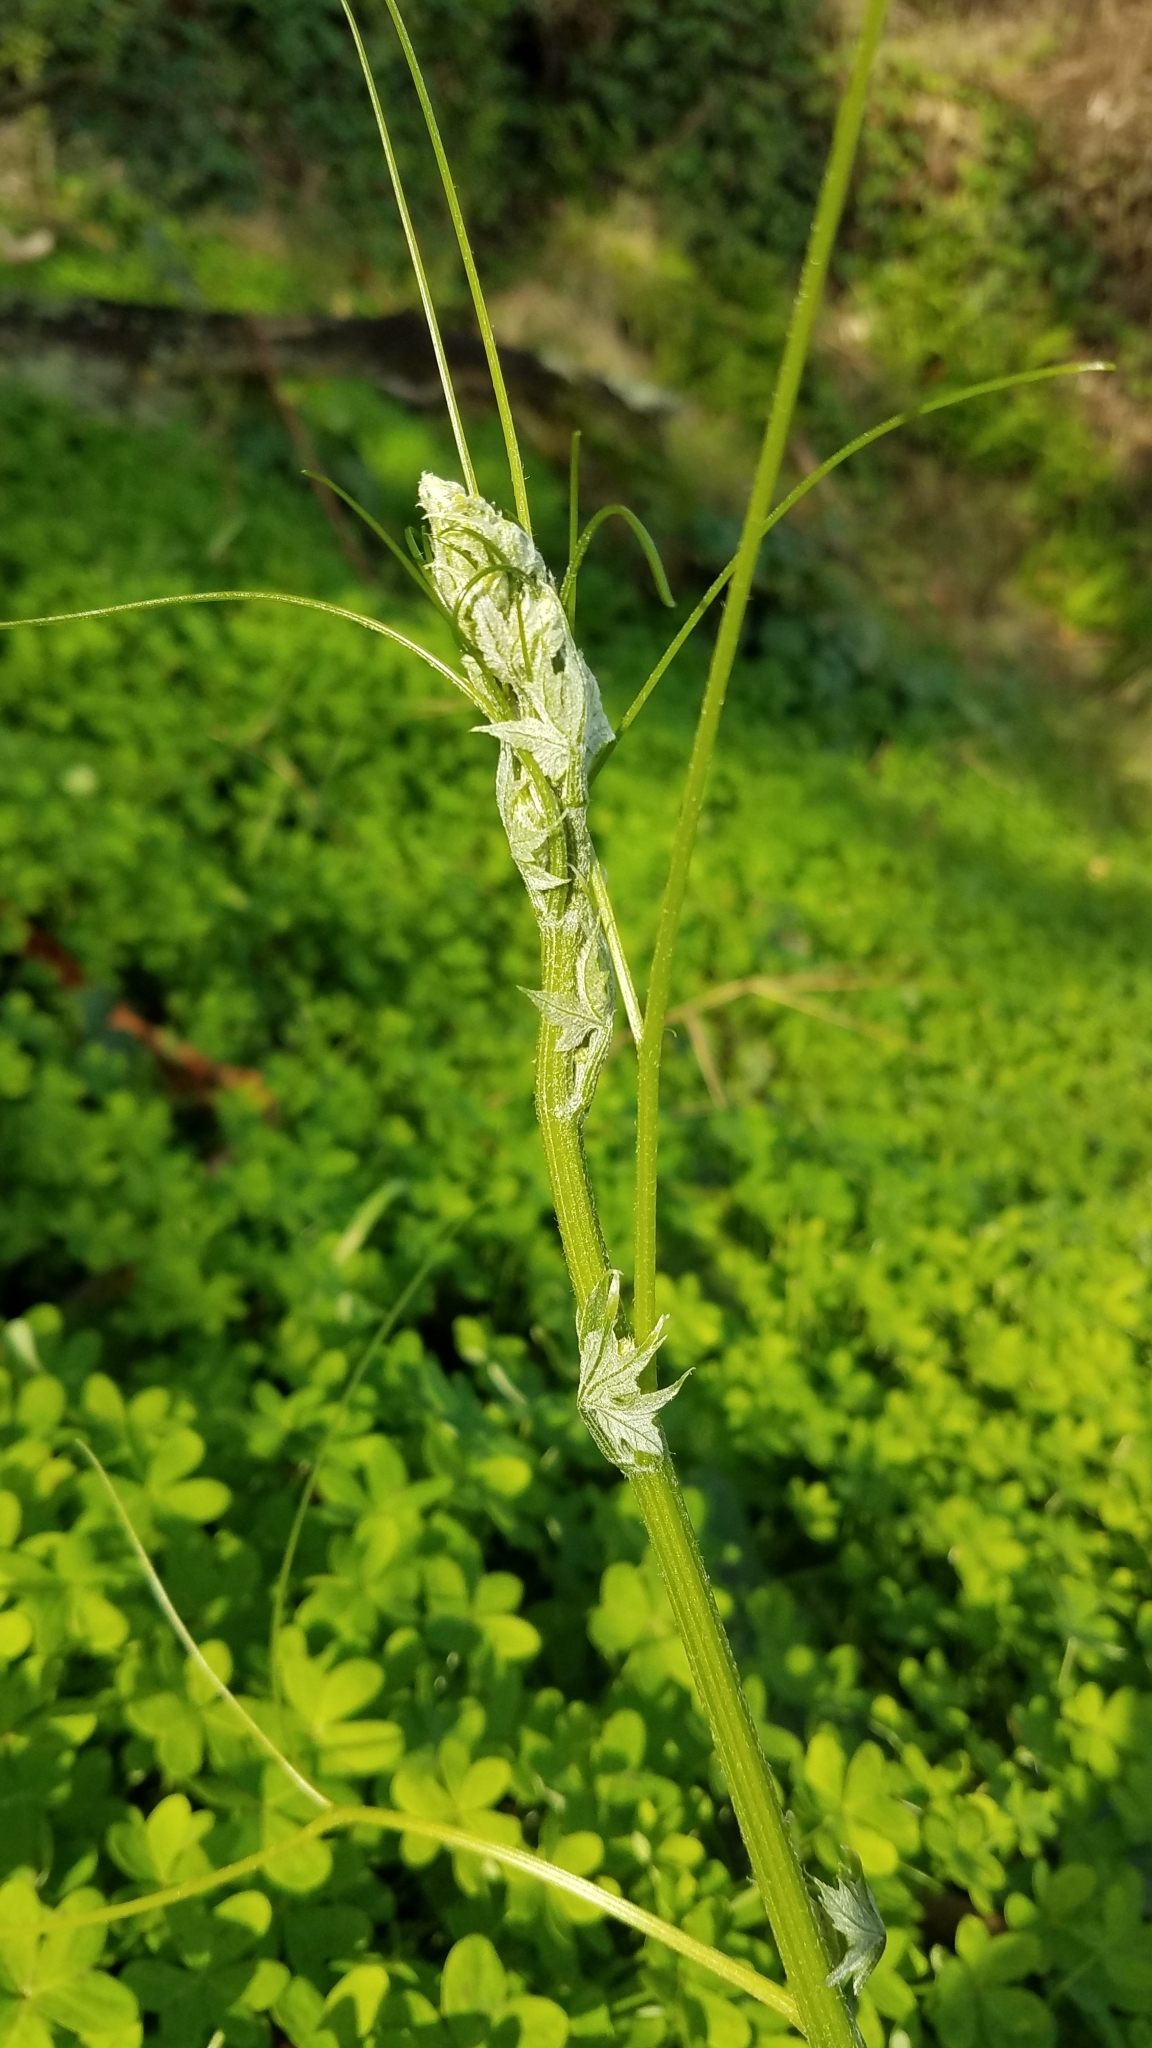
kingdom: Plantae
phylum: Tracheophyta
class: Magnoliopsida
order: Cucurbitales
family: Cucurbitaceae
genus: Marah
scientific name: Marah fabacea
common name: California manroot
